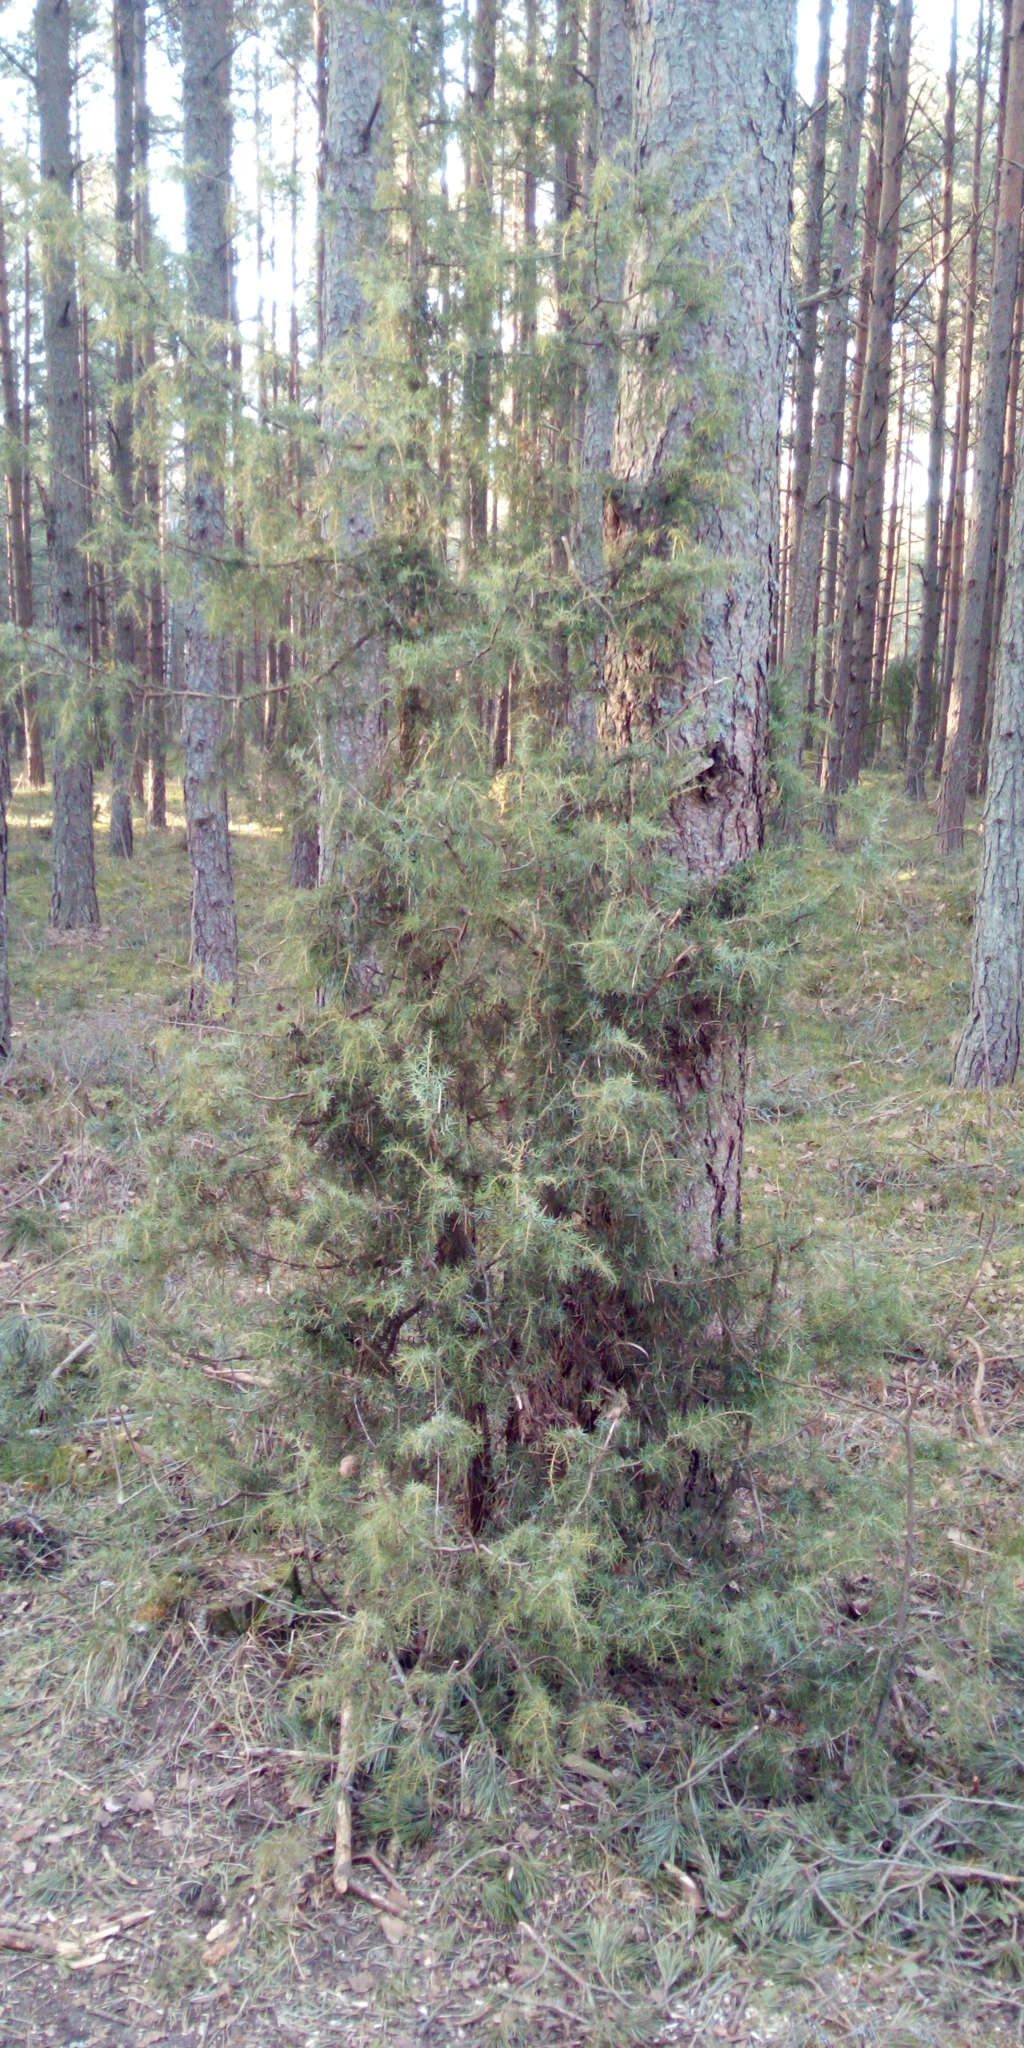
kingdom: Plantae
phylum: Tracheophyta
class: Pinopsida
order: Pinales
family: Cupressaceae
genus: Juniperus
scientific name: Juniperus communis
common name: Common juniper
